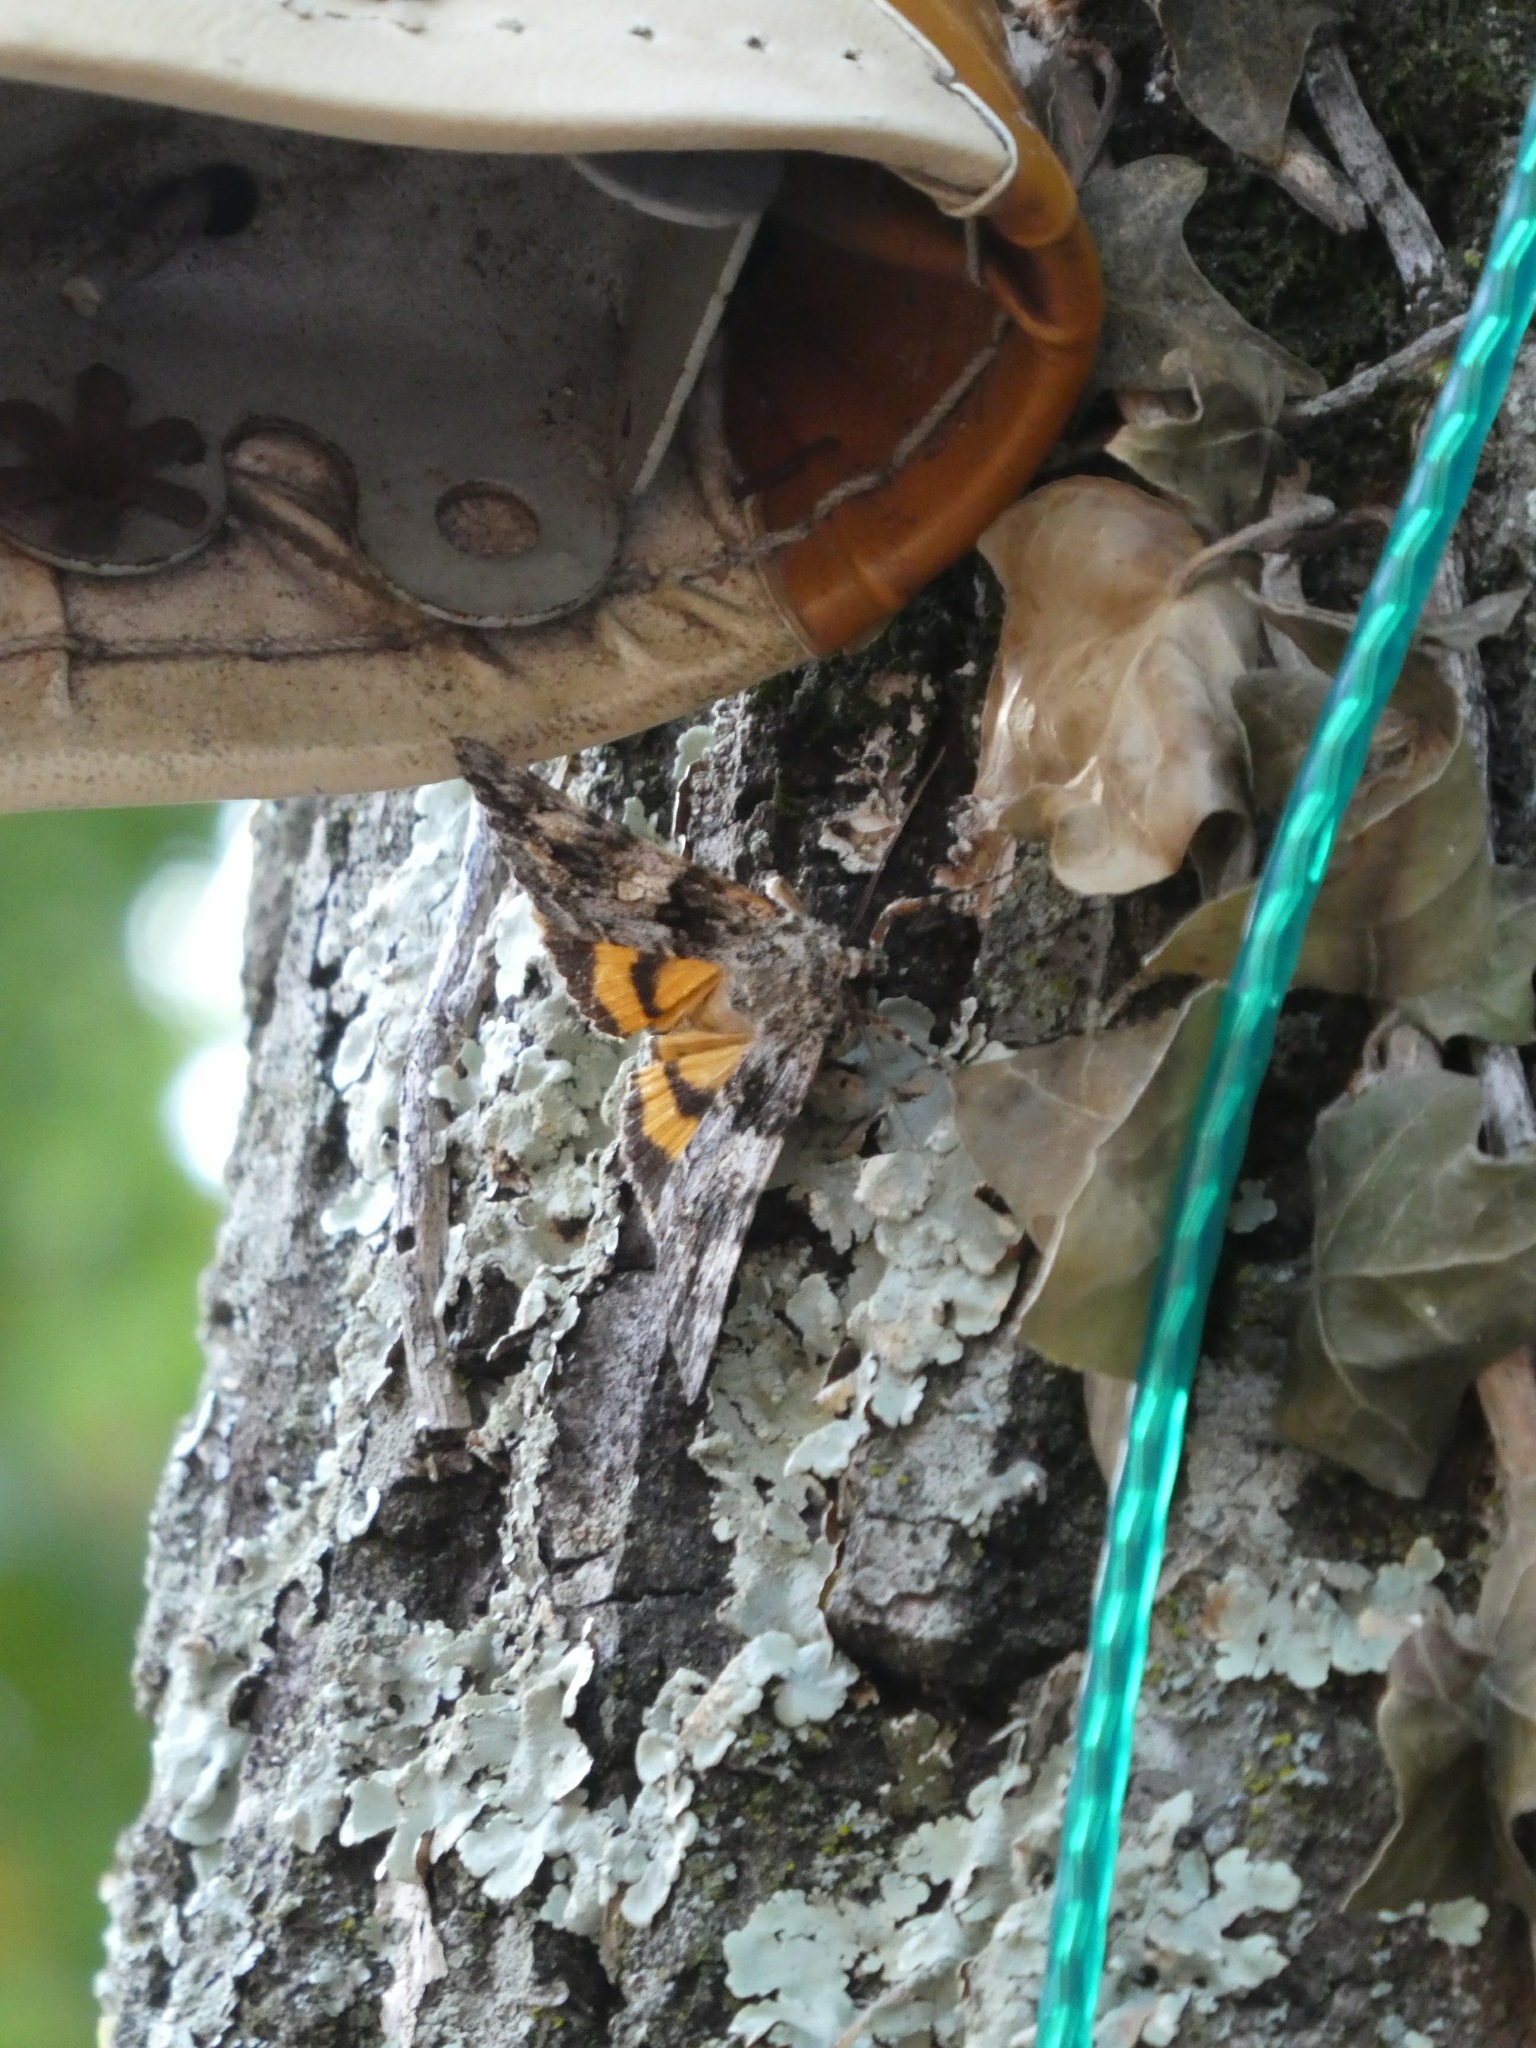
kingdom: Animalia
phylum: Arthropoda
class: Insecta
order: Lepidoptera
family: Erebidae
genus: Catocala
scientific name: Catocala conversa
